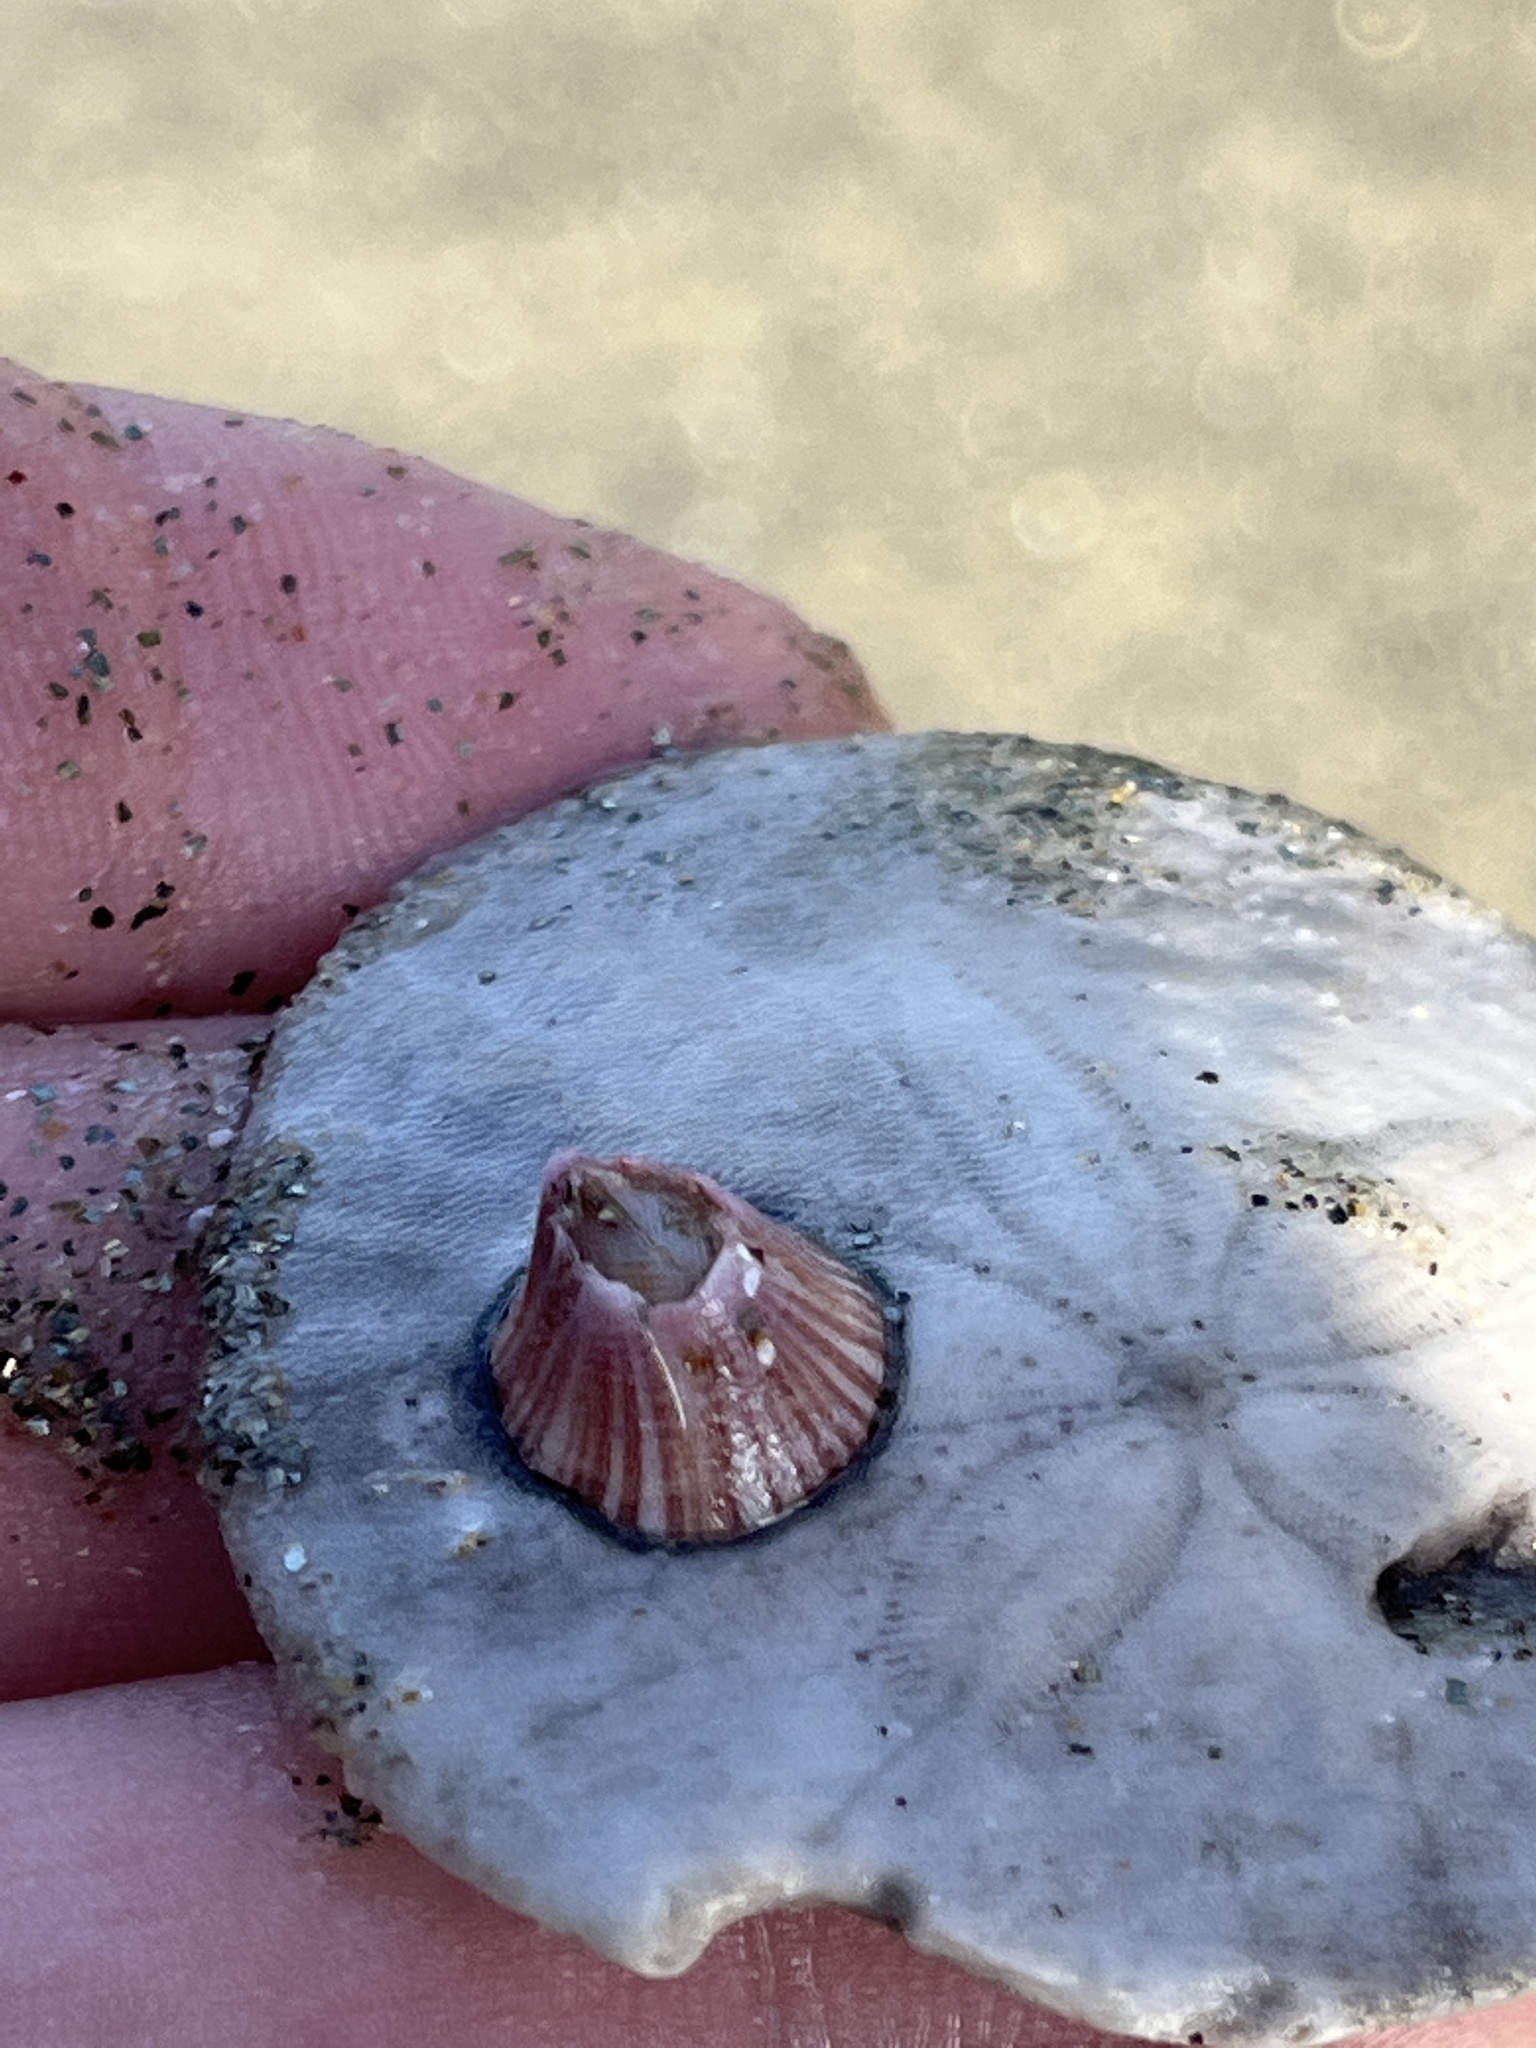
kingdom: Animalia
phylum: Arthropoda
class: Maxillopoda
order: Sessilia
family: Balanidae
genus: Paraconcavus
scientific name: Paraconcavus pacificus
